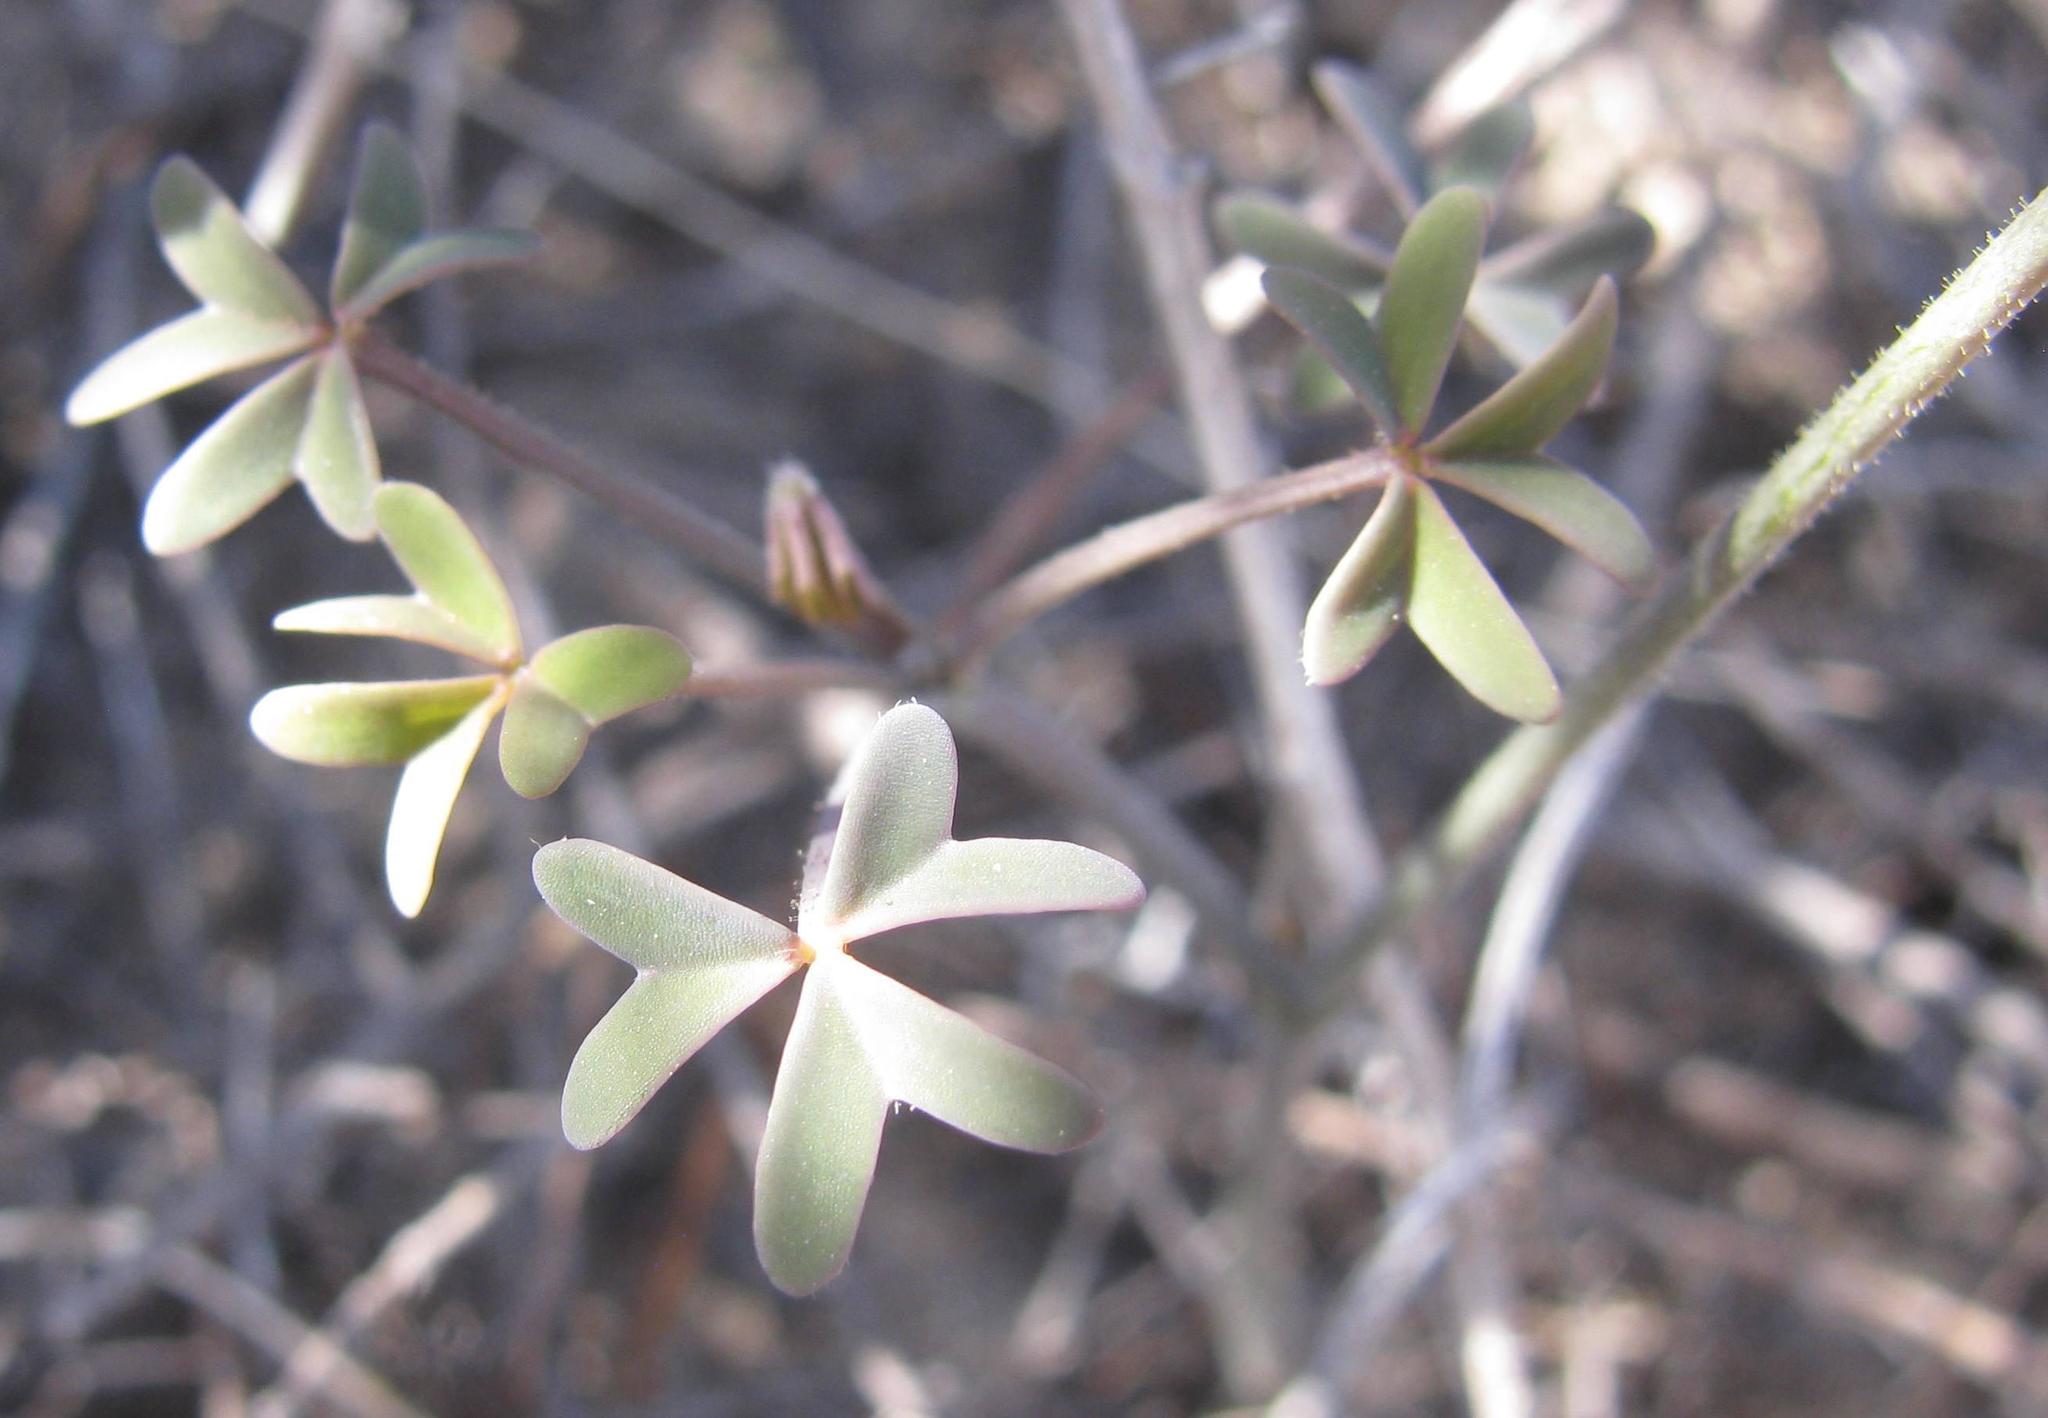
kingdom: Plantae
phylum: Tracheophyta
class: Magnoliopsida
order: Oxalidales
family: Oxalidaceae
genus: Oxalis
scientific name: Oxalis livida
